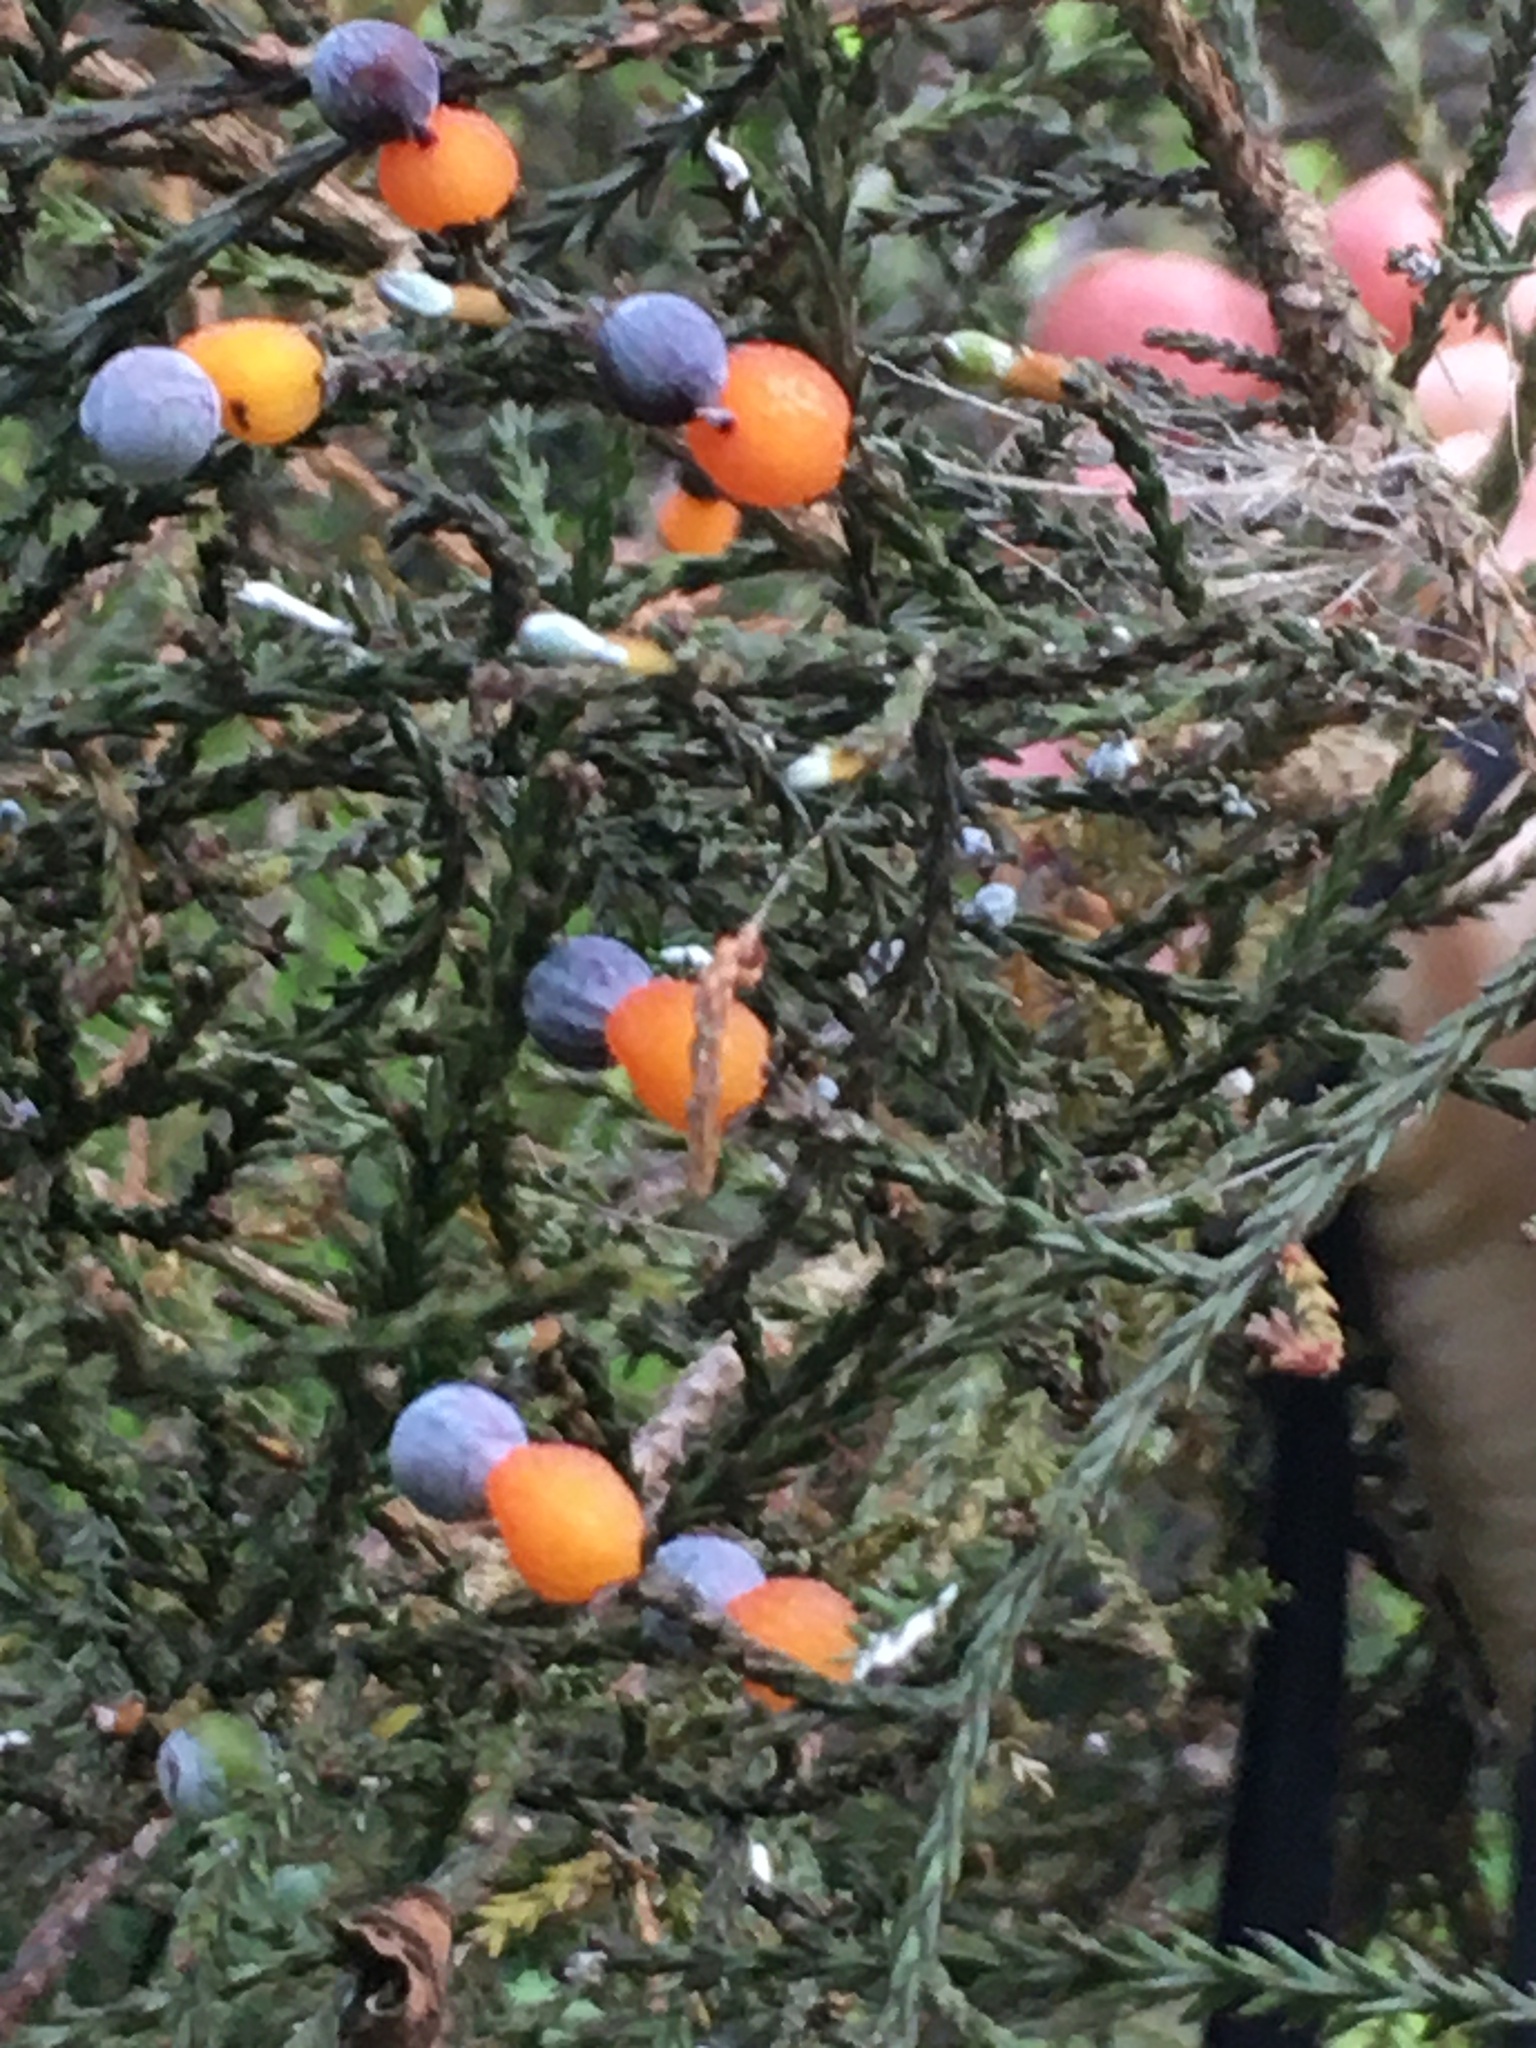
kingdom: Plantae
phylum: Tracheophyta
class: Pinopsida
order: Pinales
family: Podocarpaceae
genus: Dacrycarpus
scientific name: Dacrycarpus dacrydioides
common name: White pine
